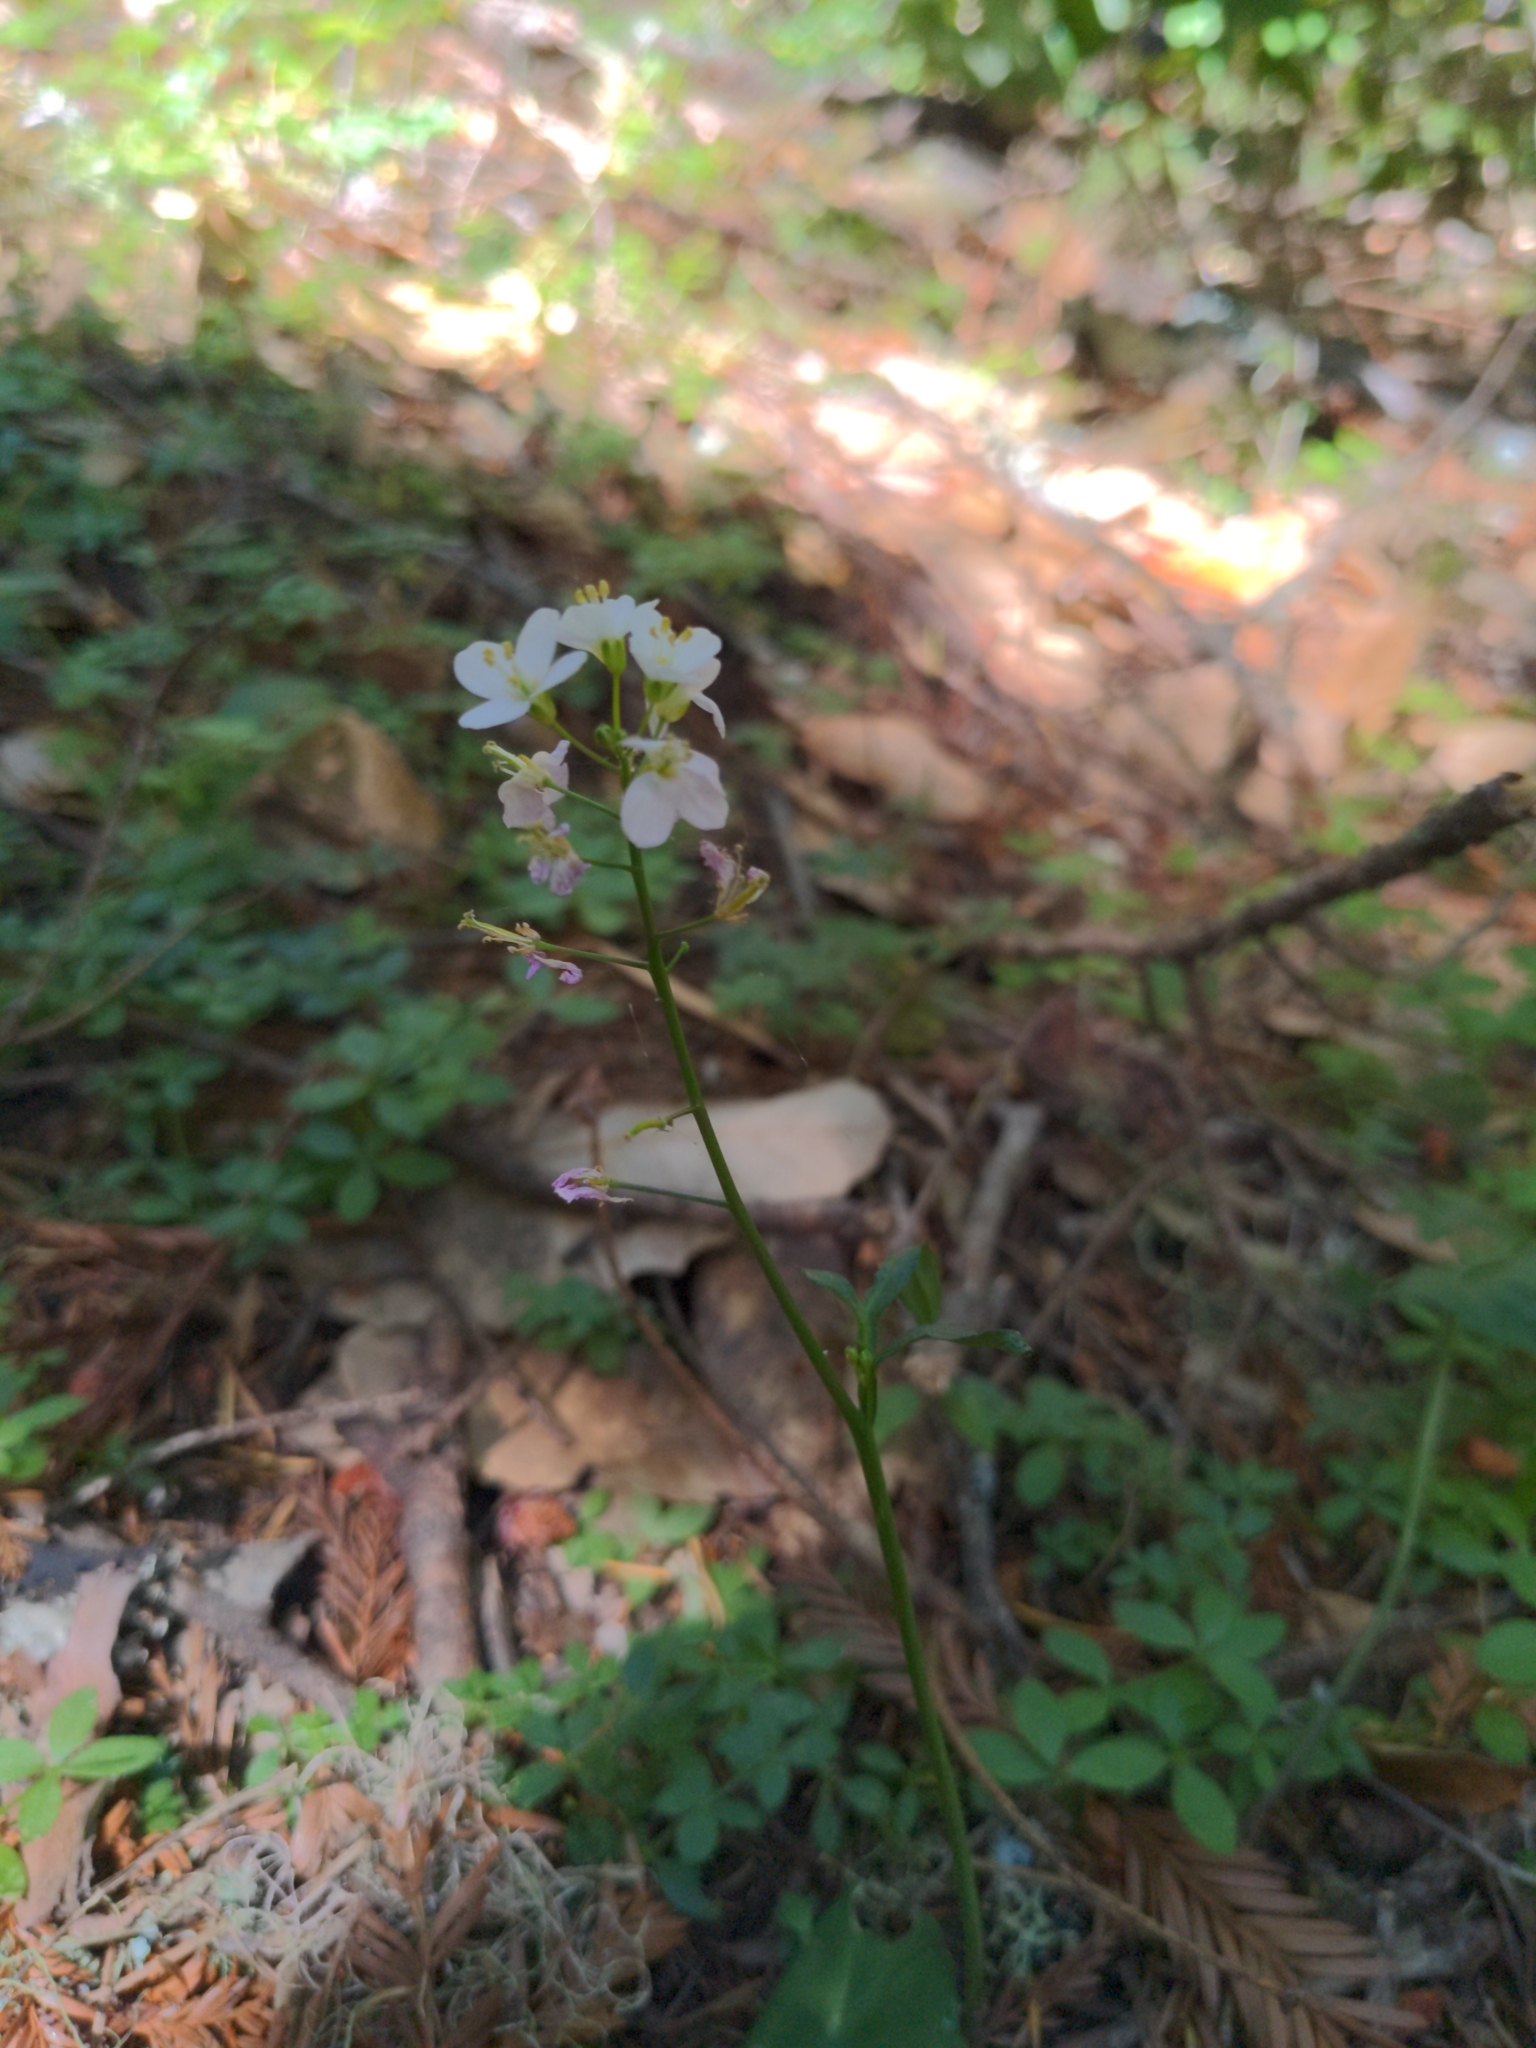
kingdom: Plantae
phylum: Tracheophyta
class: Magnoliopsida
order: Brassicales
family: Brassicaceae
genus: Cardamine
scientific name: Cardamine californica
